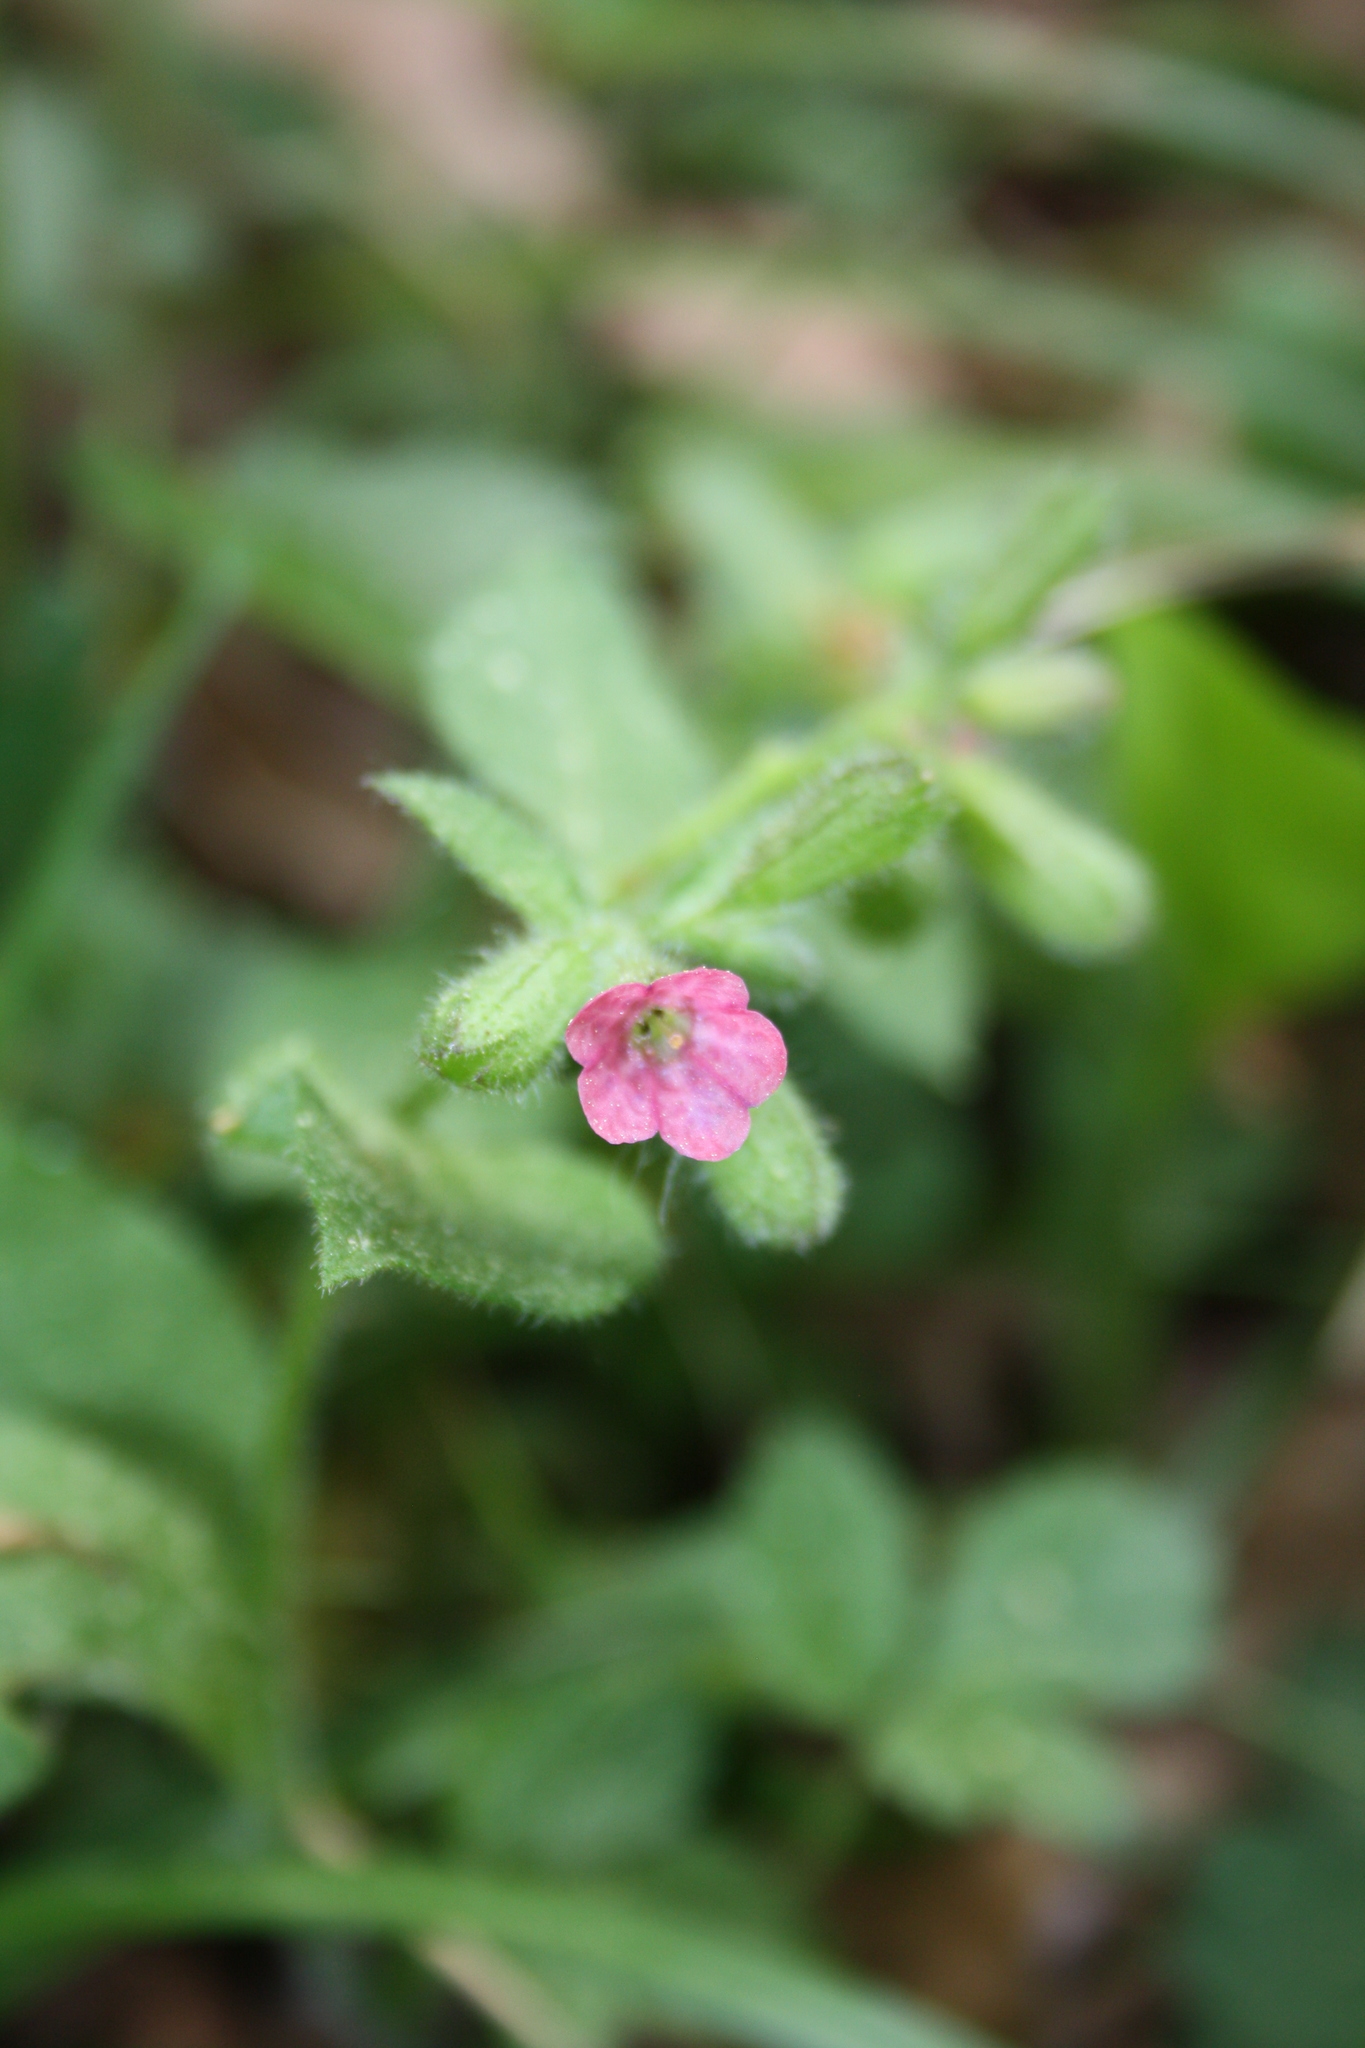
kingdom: Plantae
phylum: Tracheophyta
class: Magnoliopsida
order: Boraginales
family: Boraginaceae
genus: Pulmonaria
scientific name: Pulmonaria officinalis
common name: Lungwort
